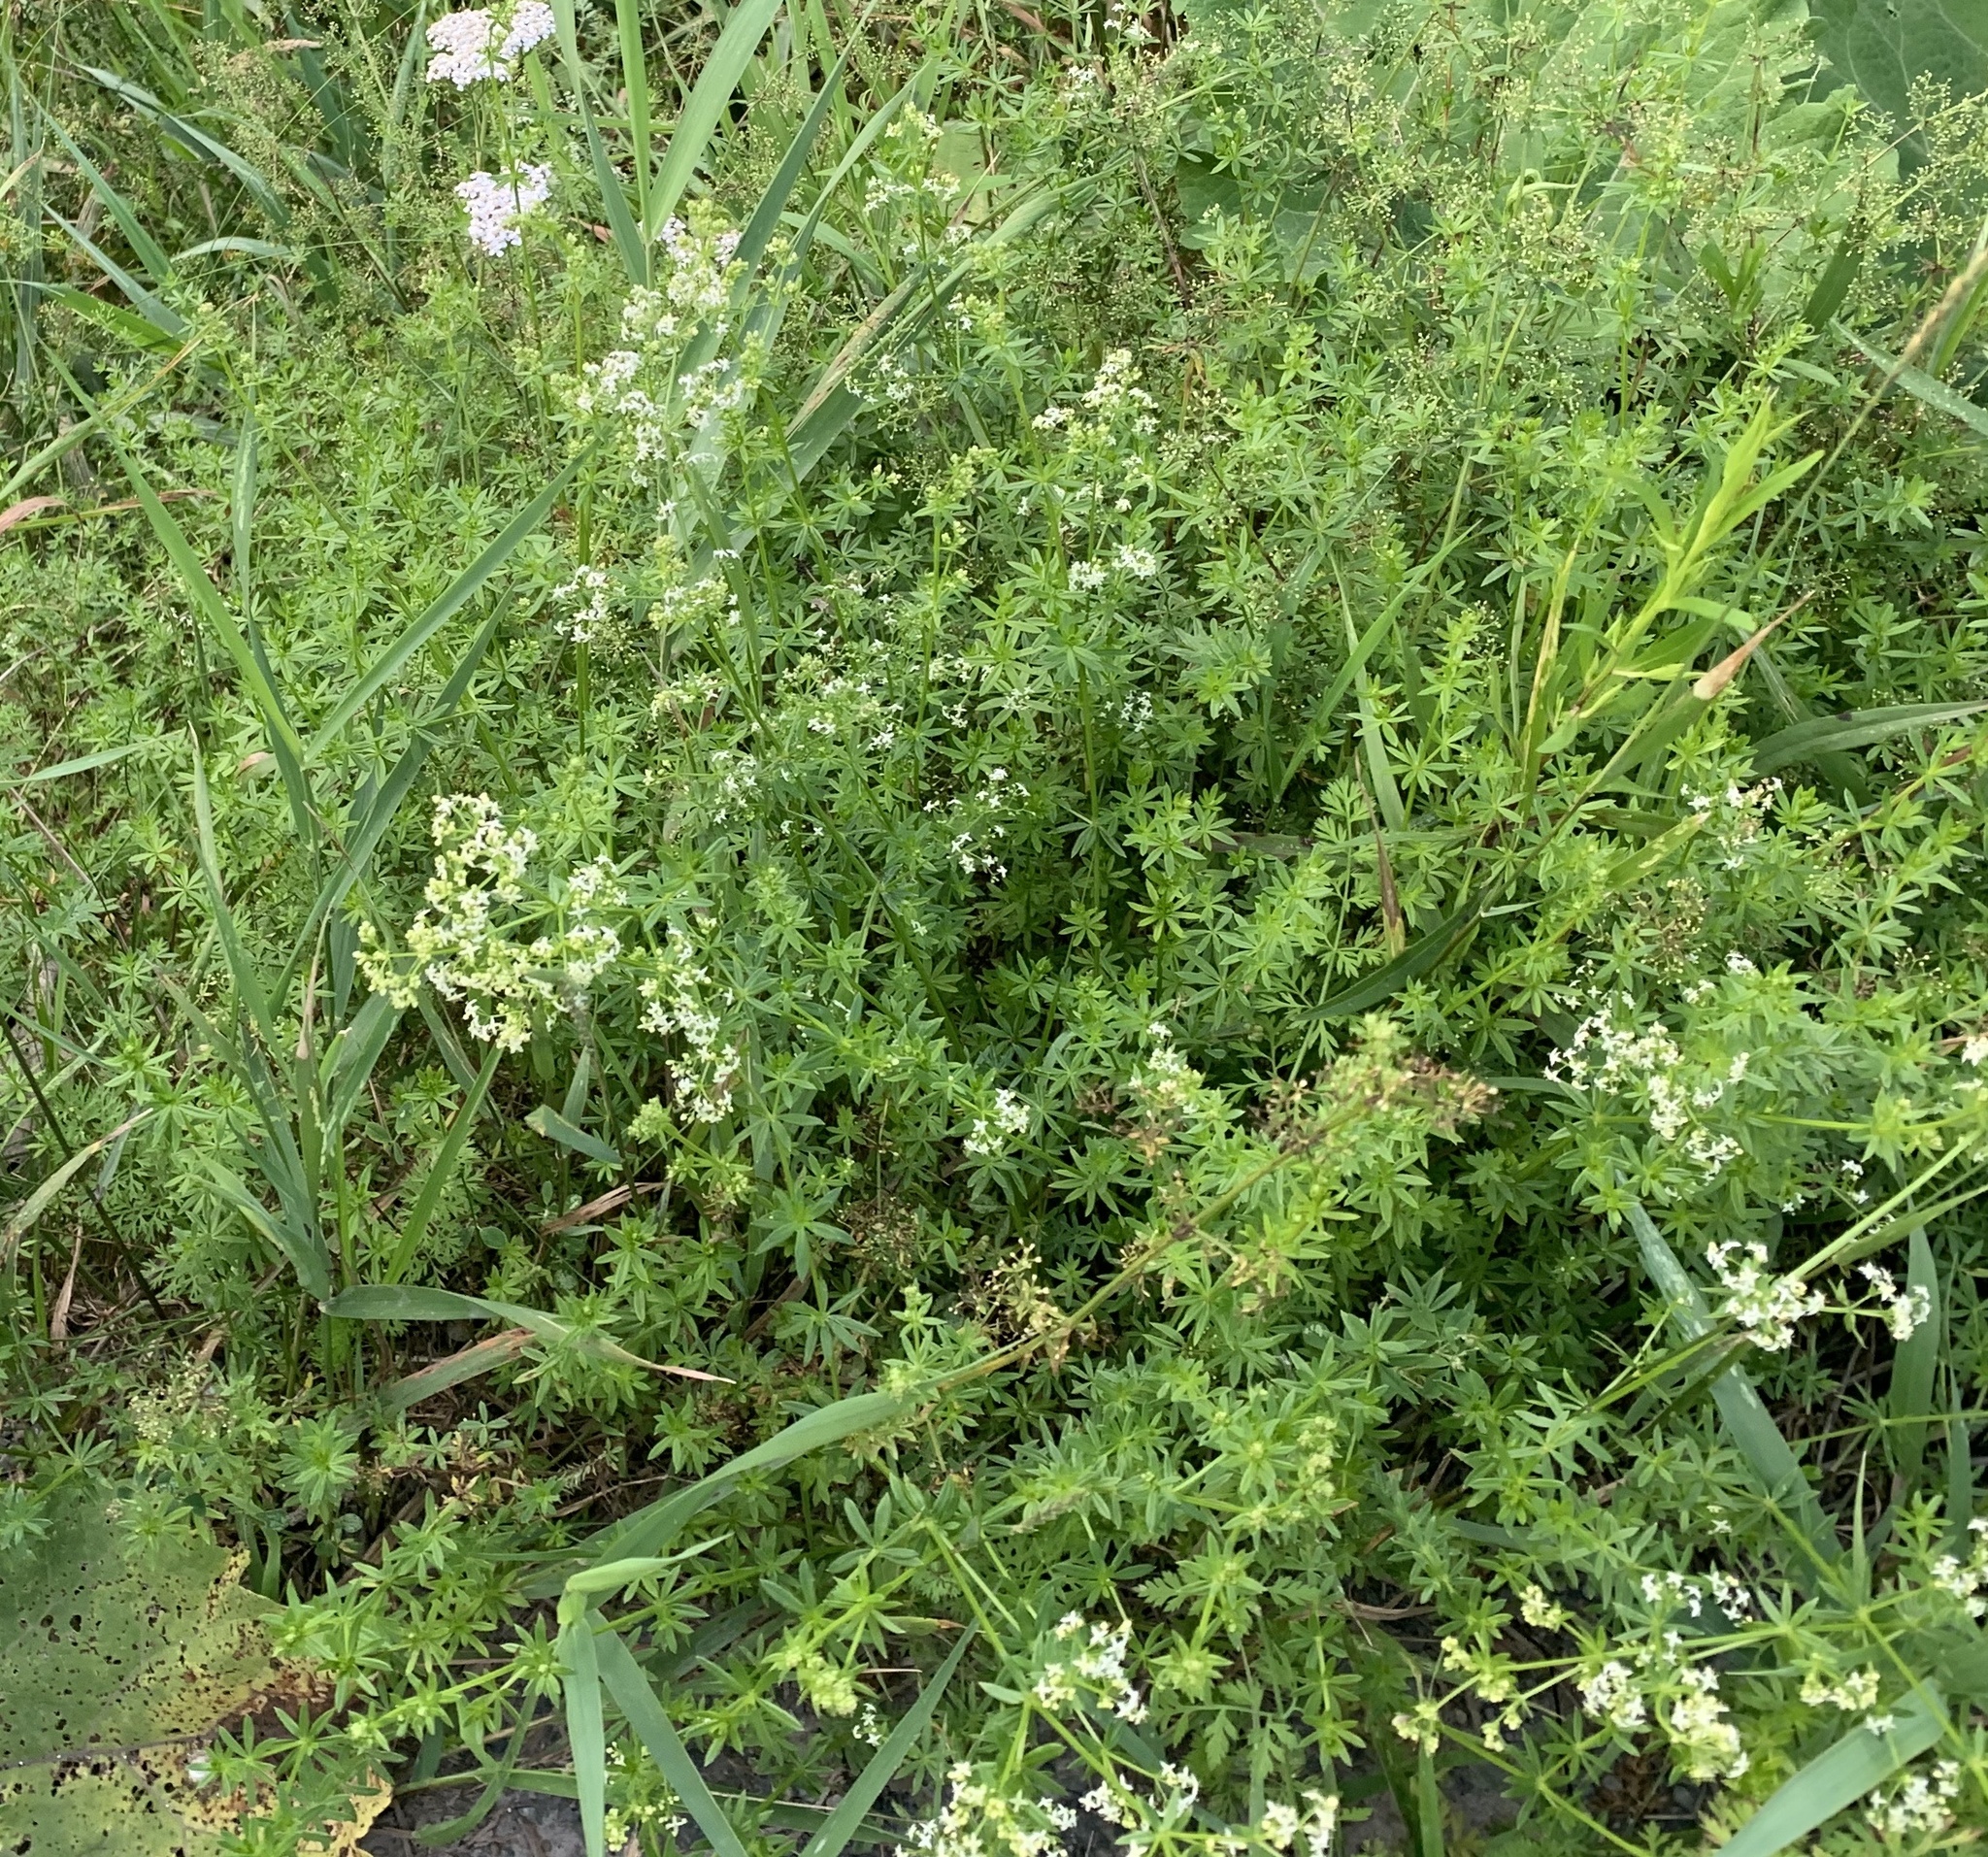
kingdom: Plantae
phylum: Tracheophyta
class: Magnoliopsida
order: Gentianales
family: Rubiaceae
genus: Galium
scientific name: Galium mollugo
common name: Hedge bedstraw
